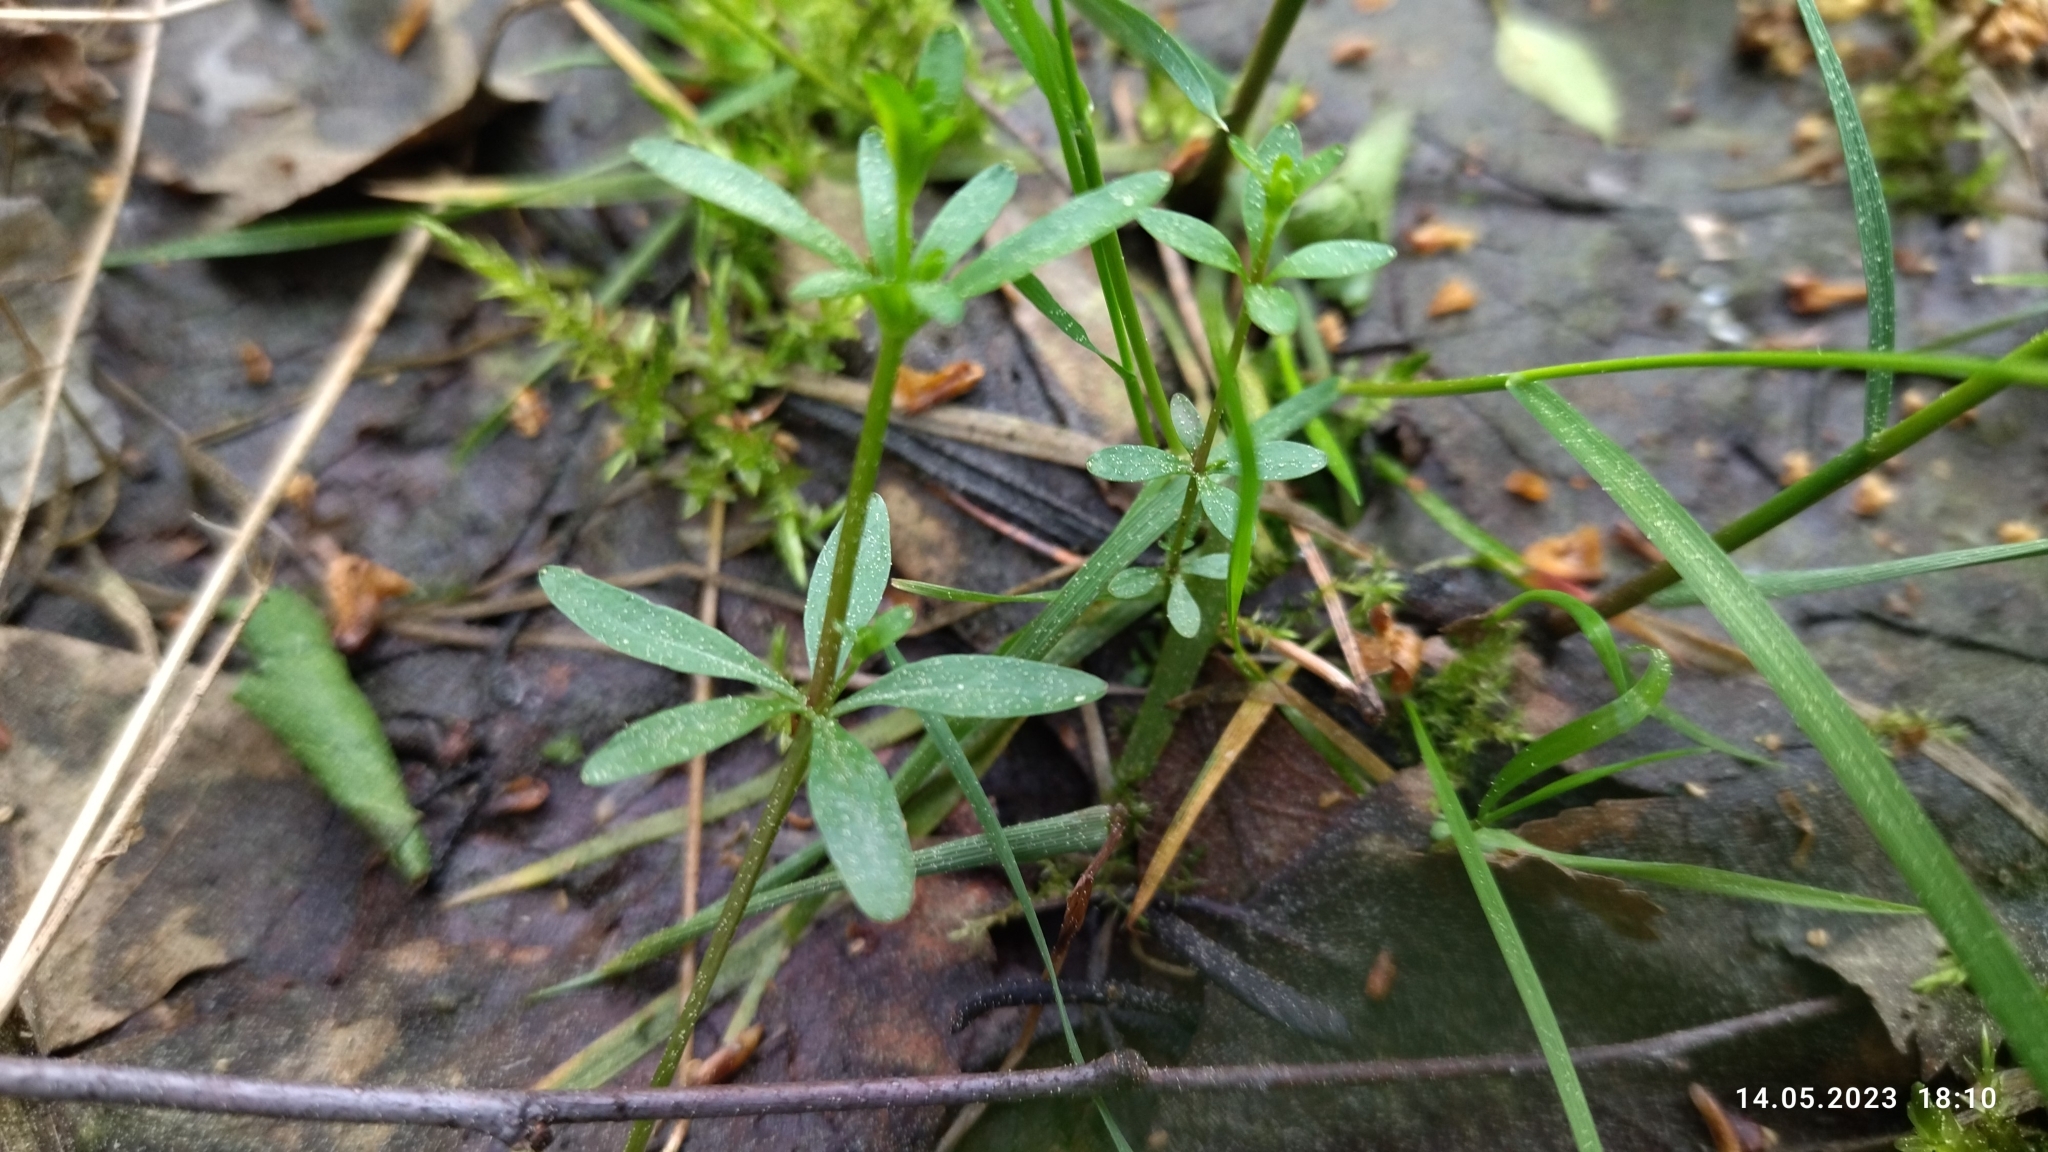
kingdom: Plantae
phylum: Tracheophyta
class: Magnoliopsida
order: Gentianales
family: Rubiaceae
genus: Galium
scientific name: Galium palustre
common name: Common marsh-bedstraw
